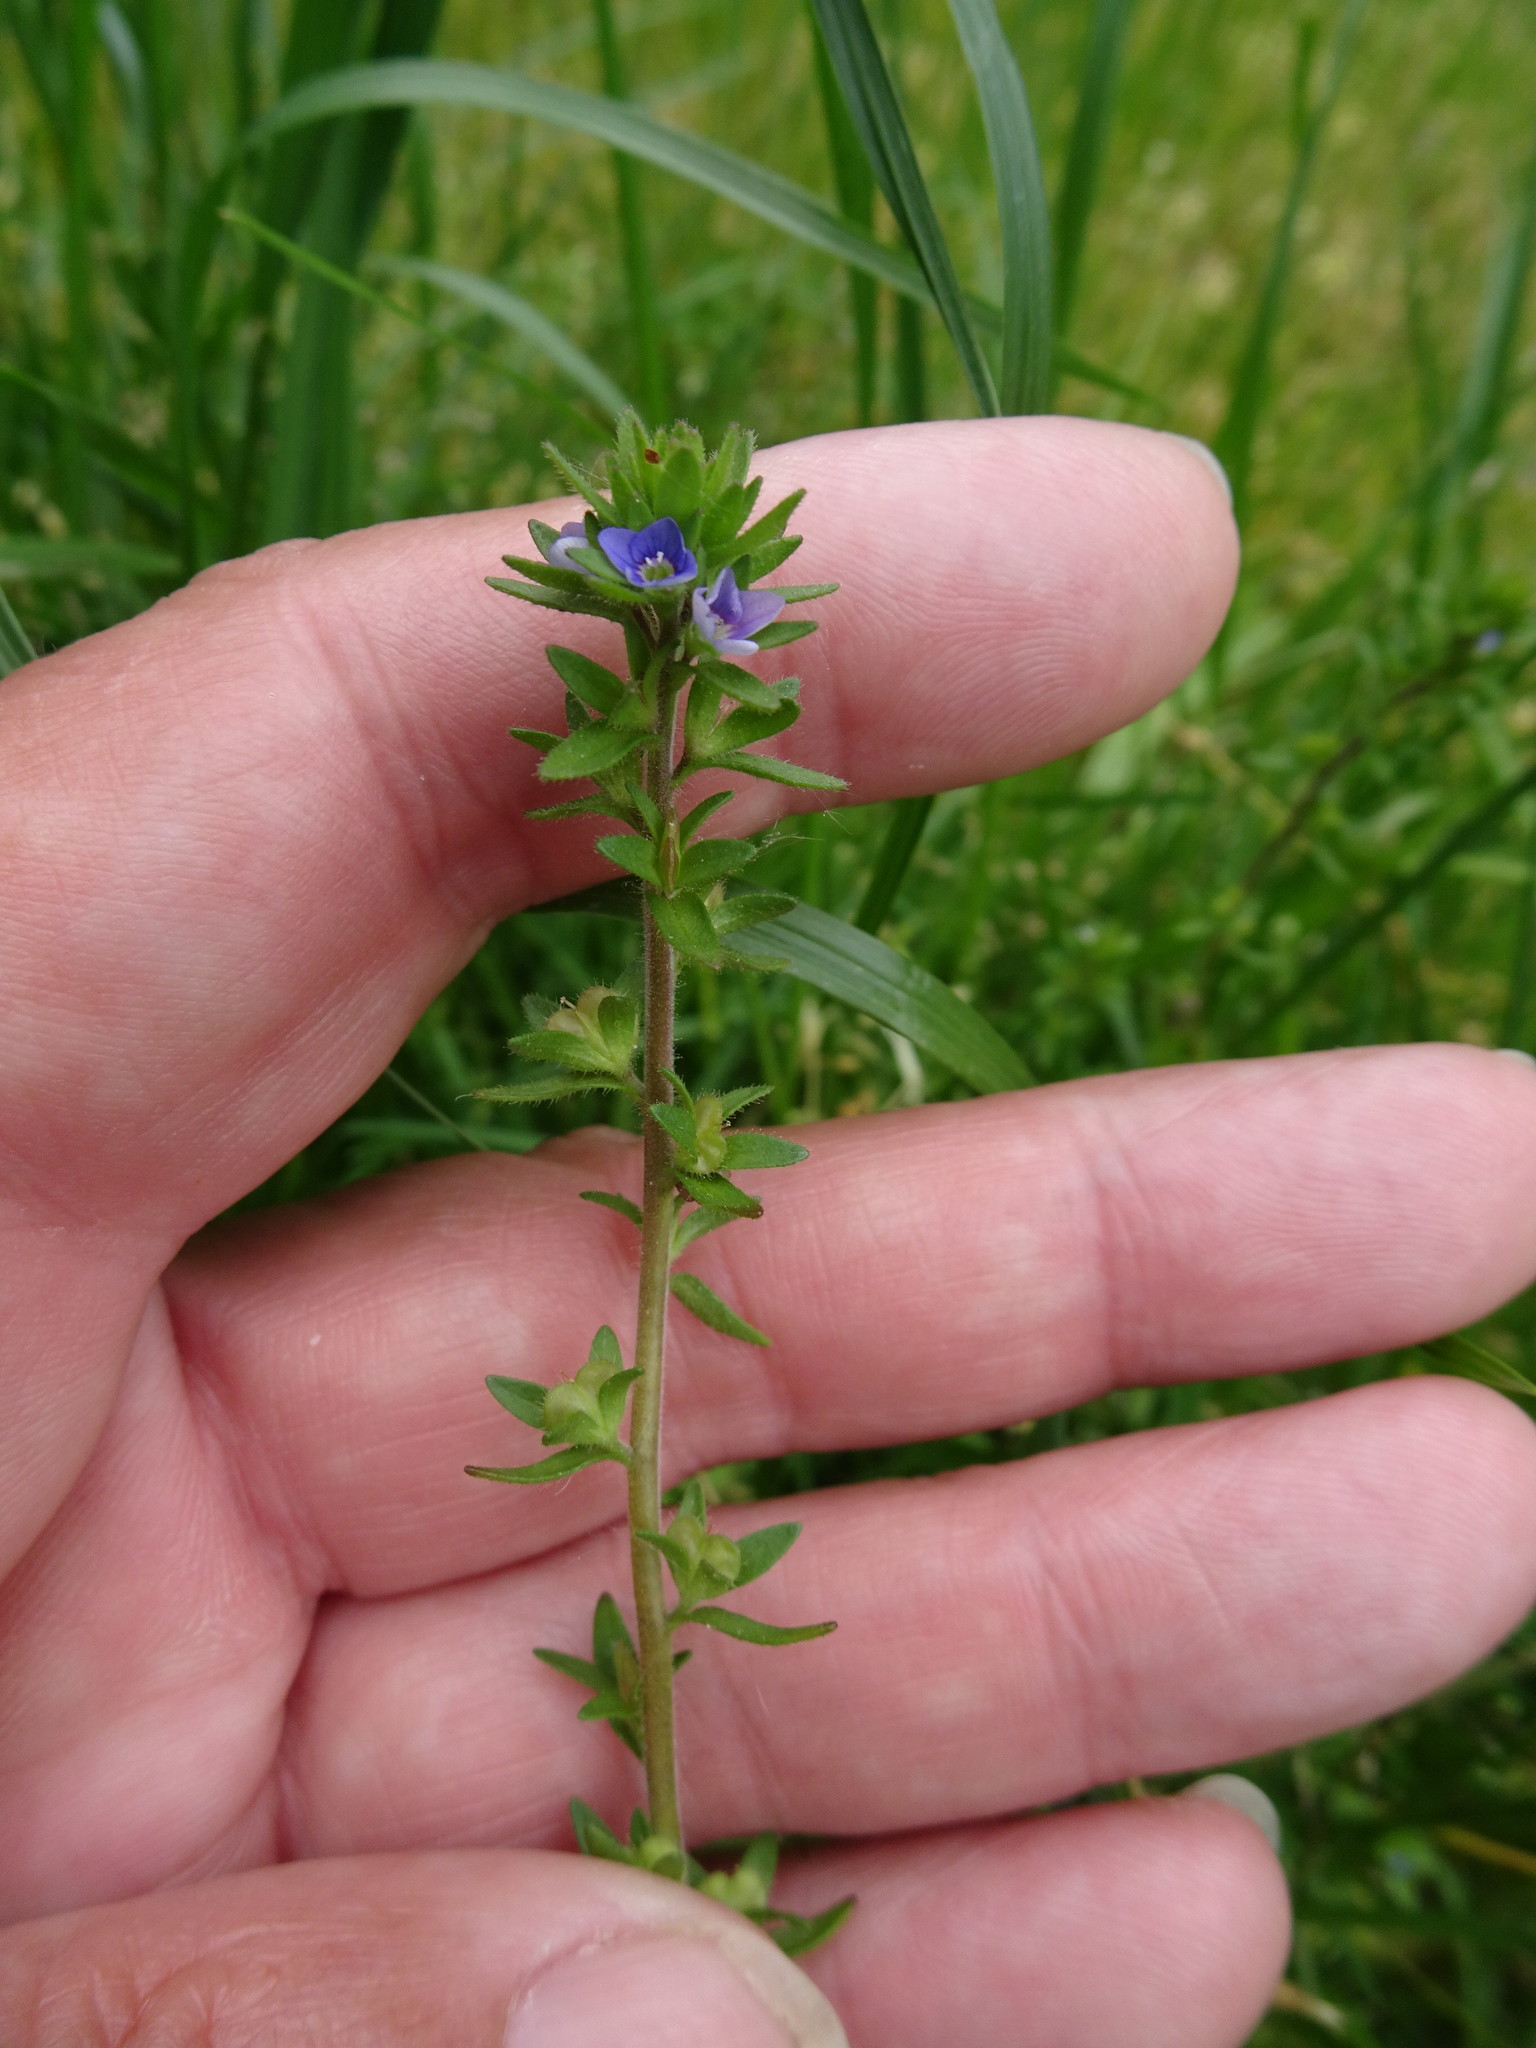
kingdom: Plantae
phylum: Tracheophyta
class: Magnoliopsida
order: Lamiales
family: Plantaginaceae
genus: Veronica
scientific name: Veronica arvensis
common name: Corn speedwell
